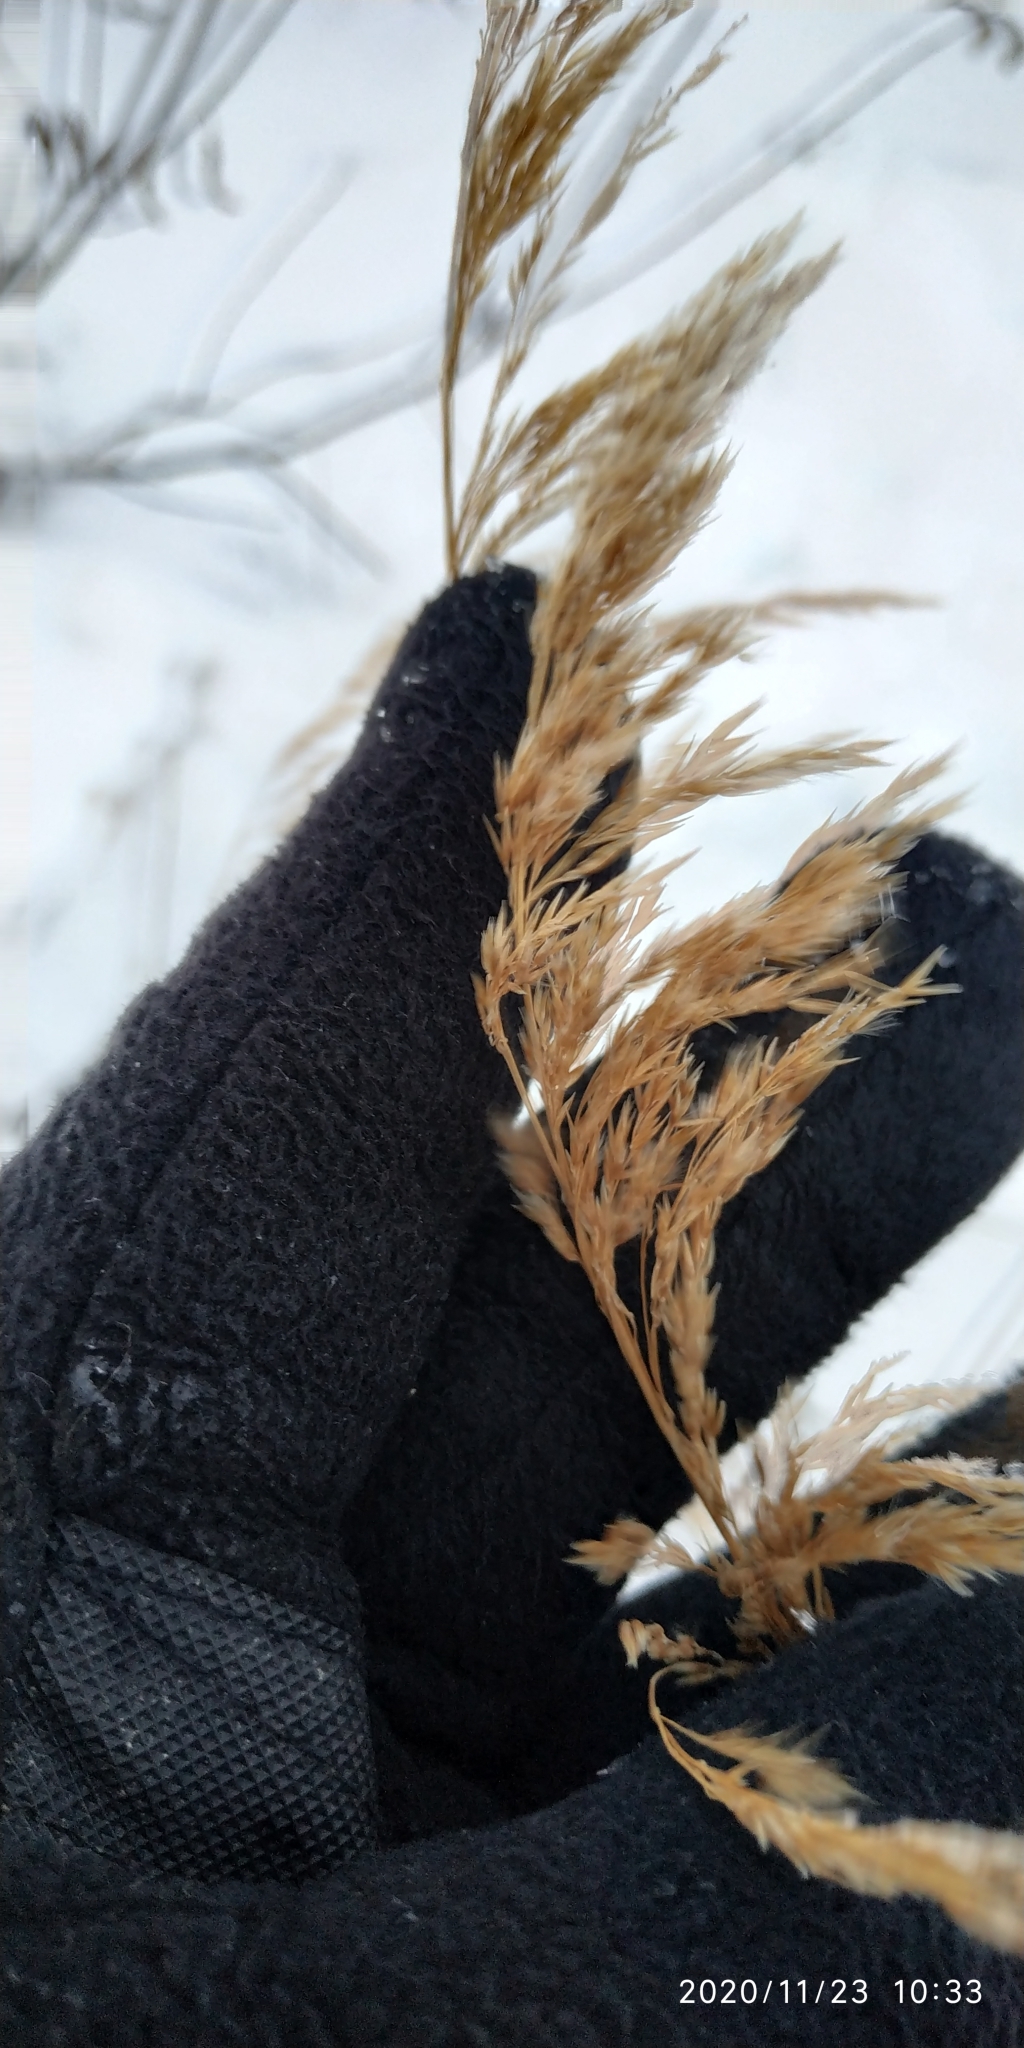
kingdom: Plantae
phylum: Tracheophyta
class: Liliopsida
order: Poales
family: Poaceae
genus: Calamagrostis
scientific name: Calamagrostis purpurea
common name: Scandinavian small-reed
